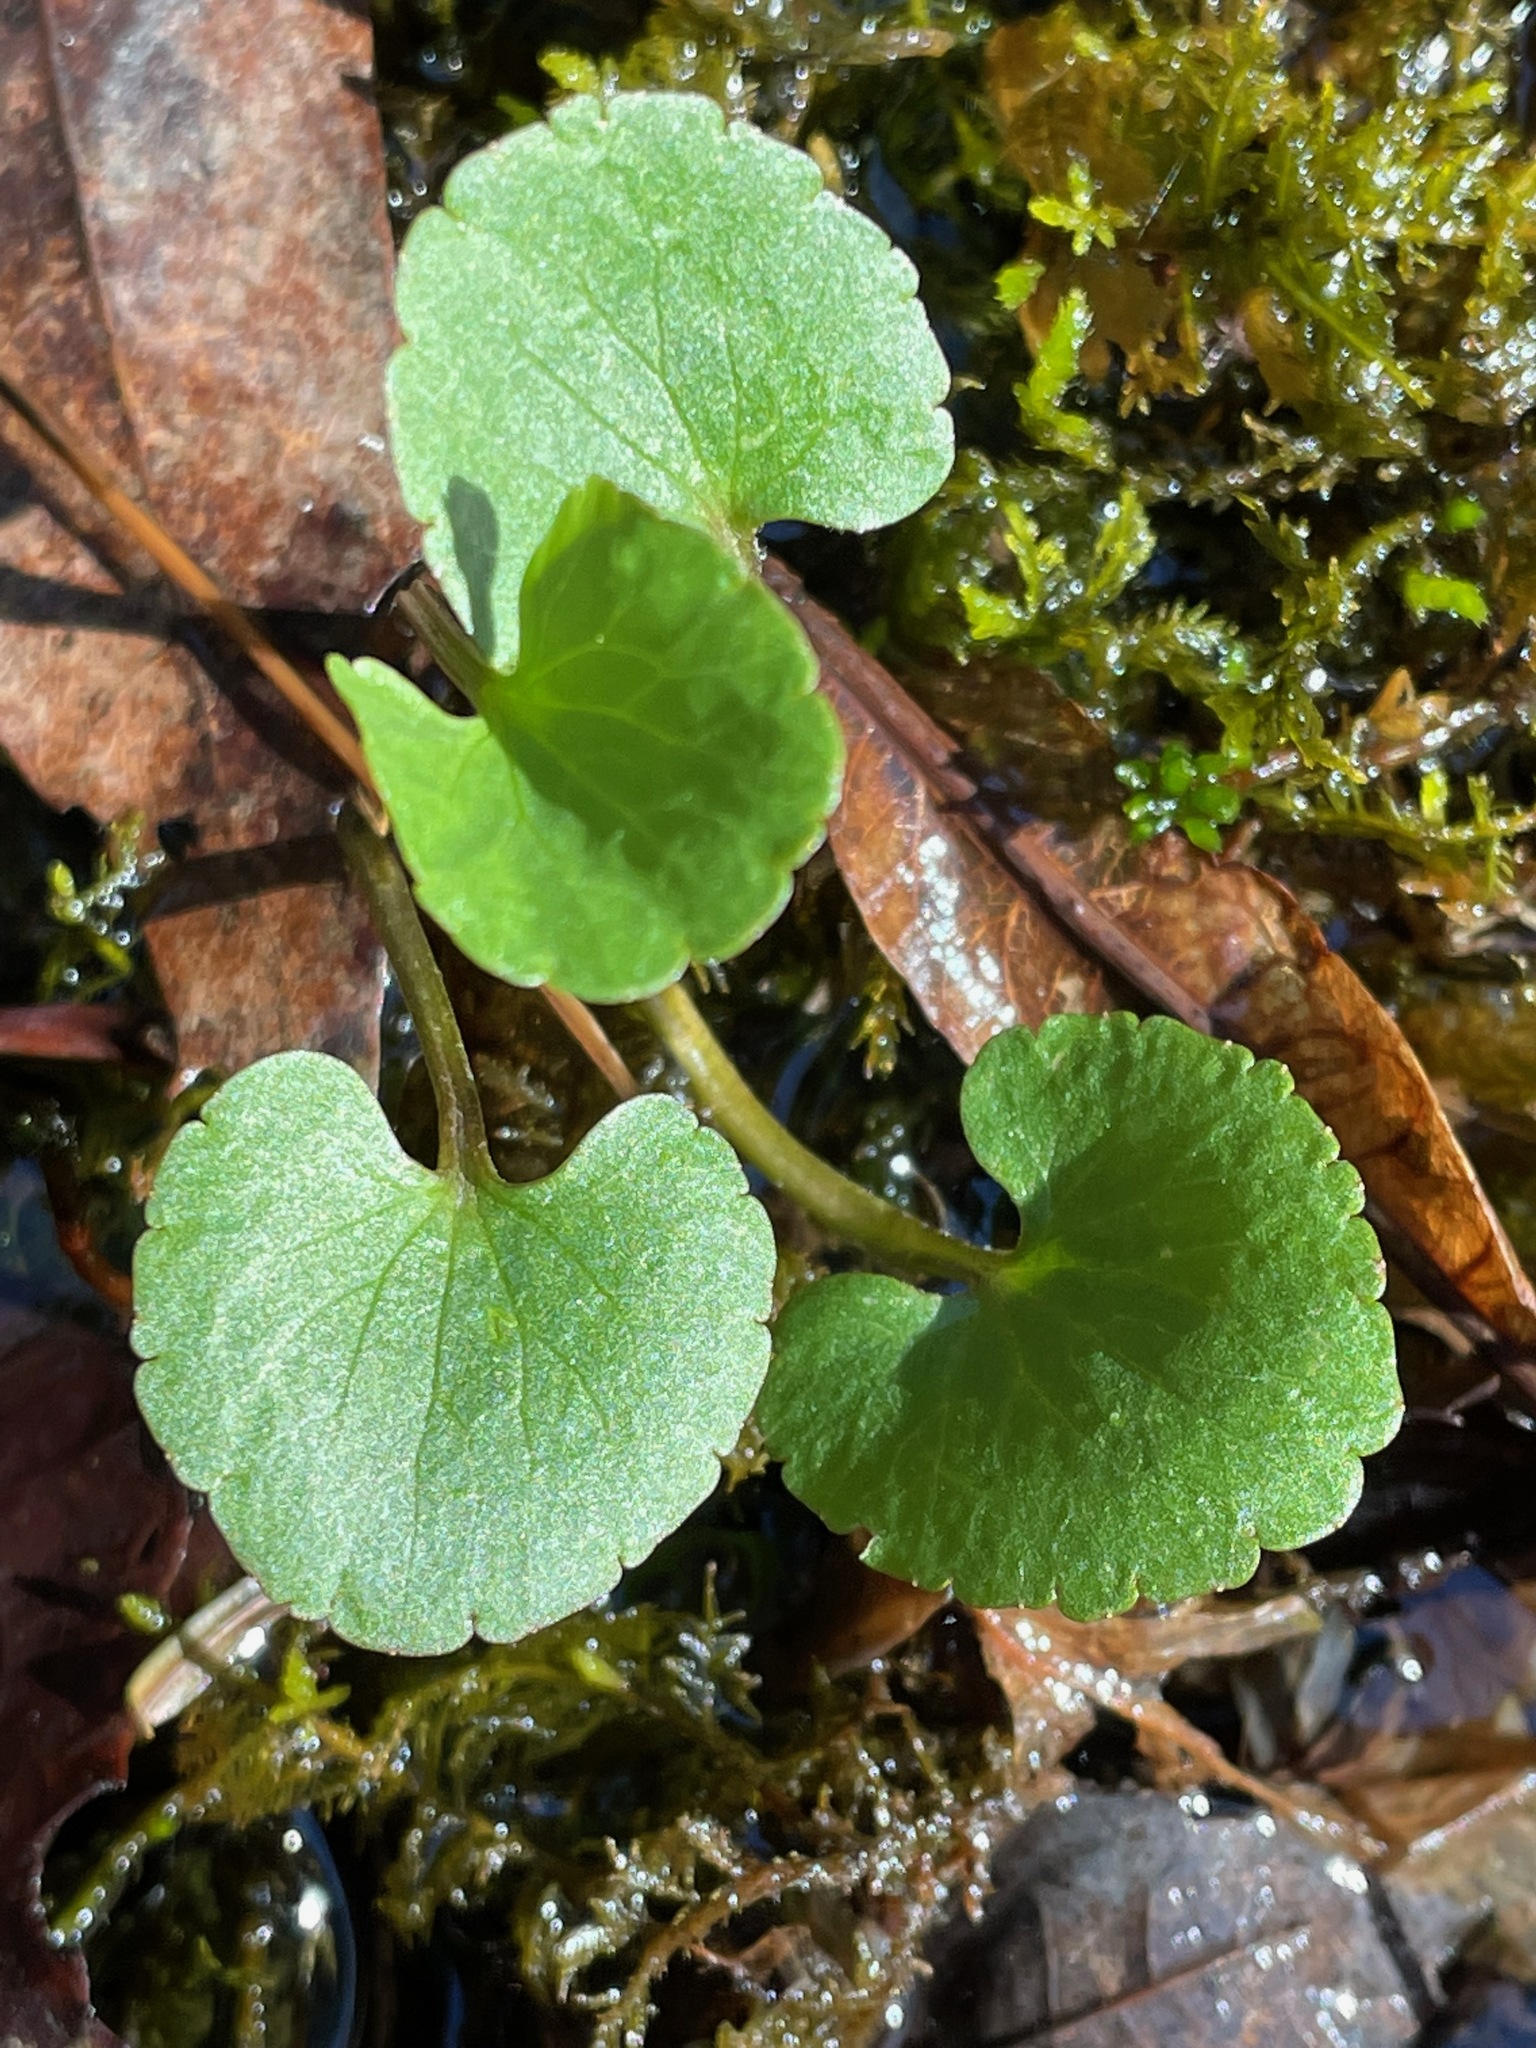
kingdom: Plantae
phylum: Tracheophyta
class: Magnoliopsida
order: Ranunculales
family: Ranunculaceae
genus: Ranunculus
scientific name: Ranunculus abortivus
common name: Early wood buttercup
